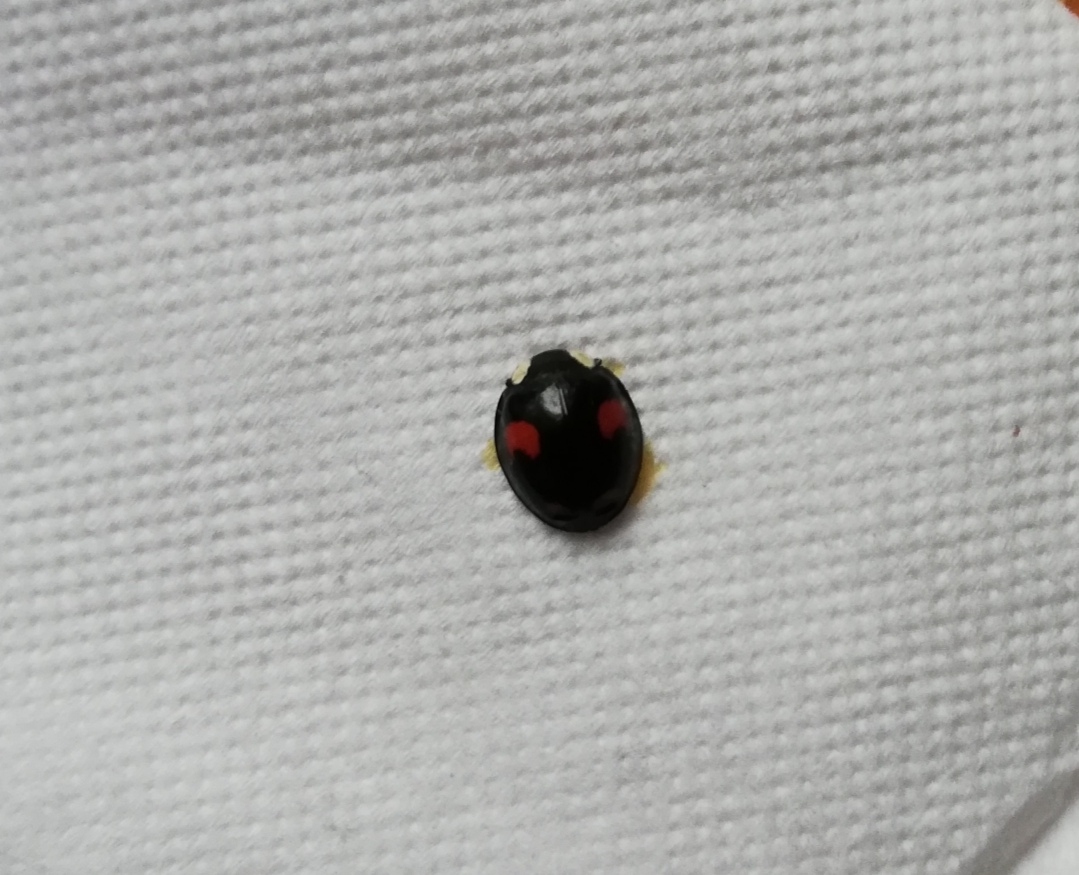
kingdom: Animalia
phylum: Arthropoda
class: Insecta
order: Coleoptera
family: Coccinellidae
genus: Harmonia
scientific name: Harmonia axyridis
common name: Harlequin ladybird
